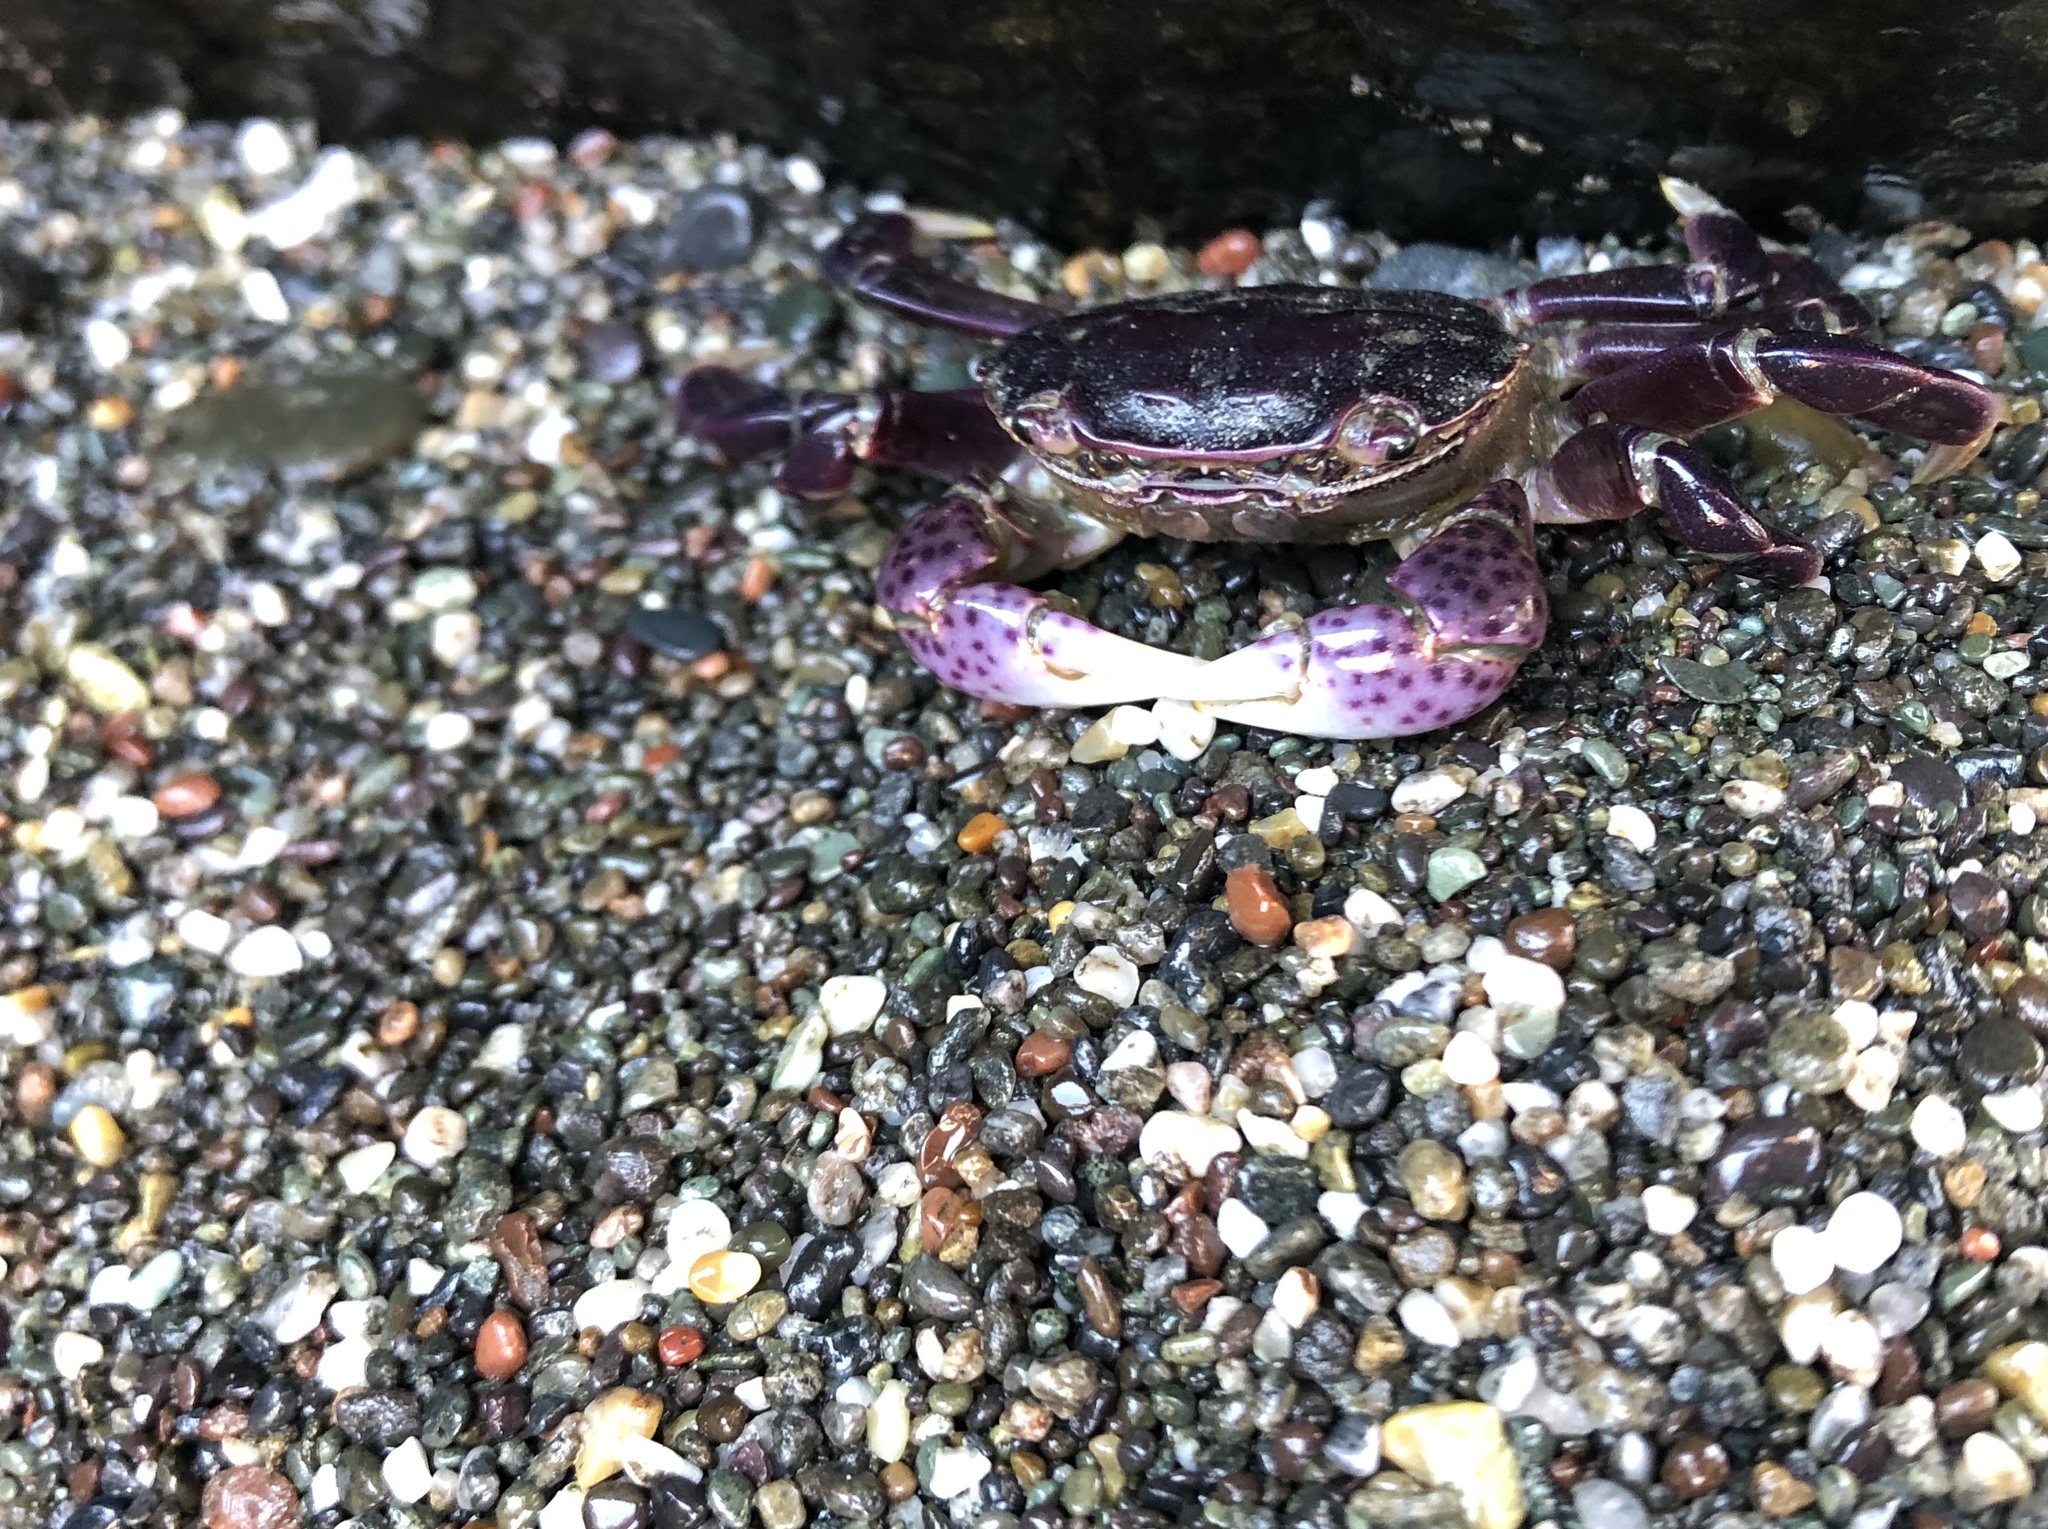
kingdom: Animalia
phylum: Arthropoda
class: Malacostraca
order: Decapoda
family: Varunidae
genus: Hemigrapsus
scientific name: Hemigrapsus nudus
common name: Purple shore crab
